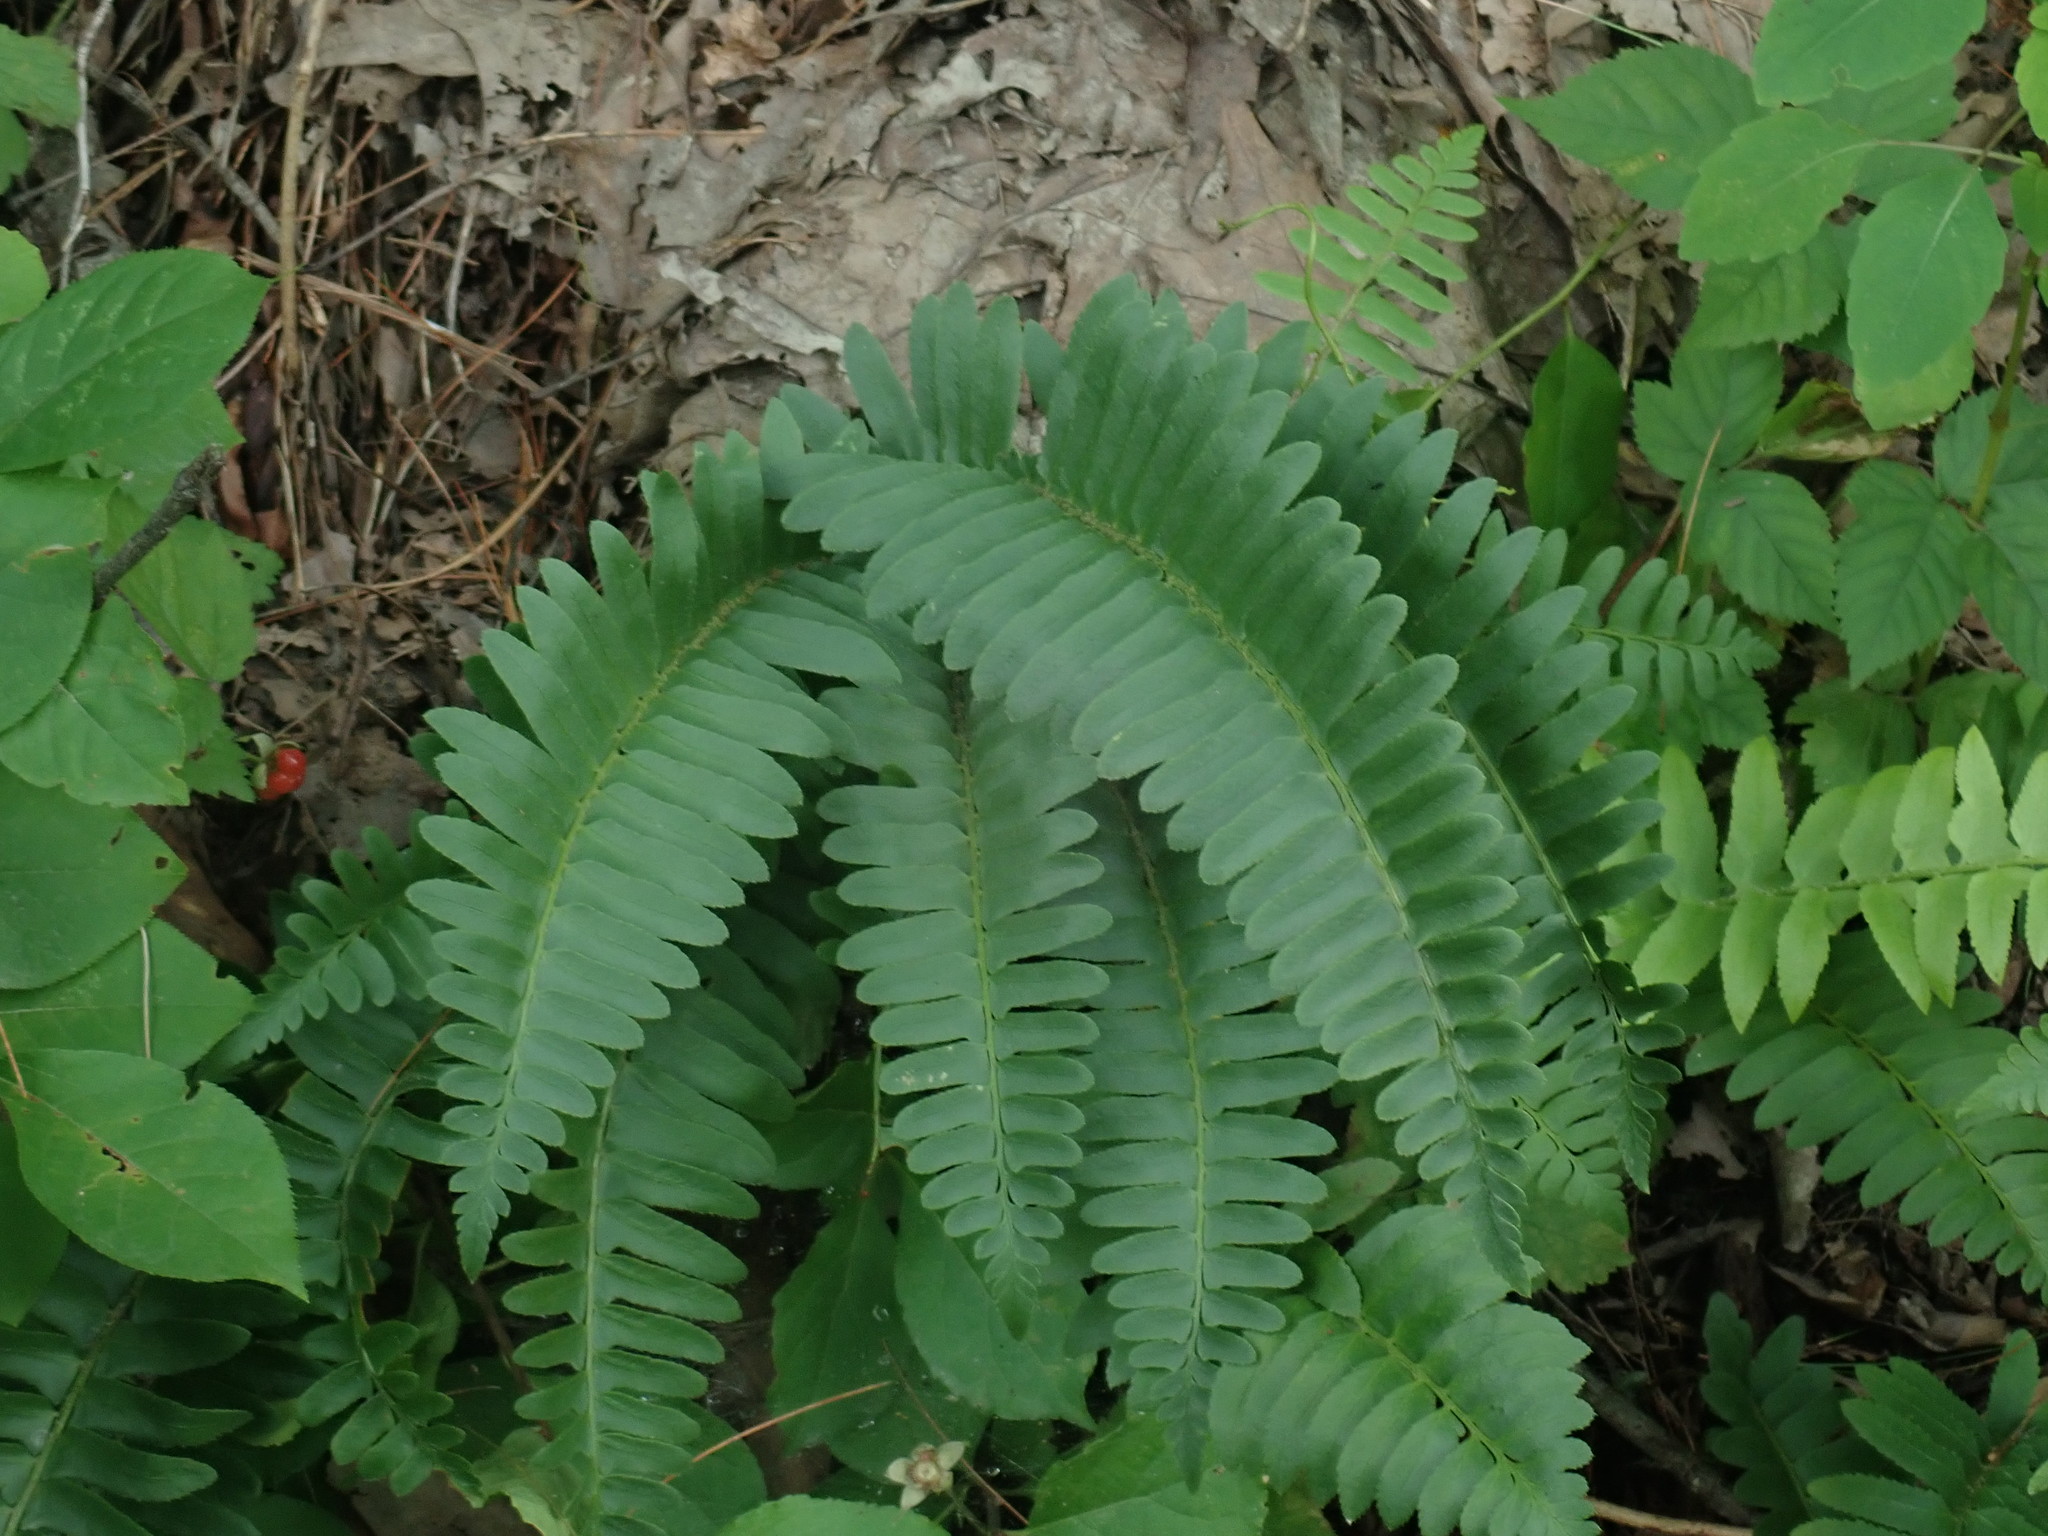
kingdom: Plantae
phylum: Tracheophyta
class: Polypodiopsida
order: Polypodiales
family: Dryopteridaceae
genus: Polystichum
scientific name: Polystichum acrostichoides
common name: Christmas fern
